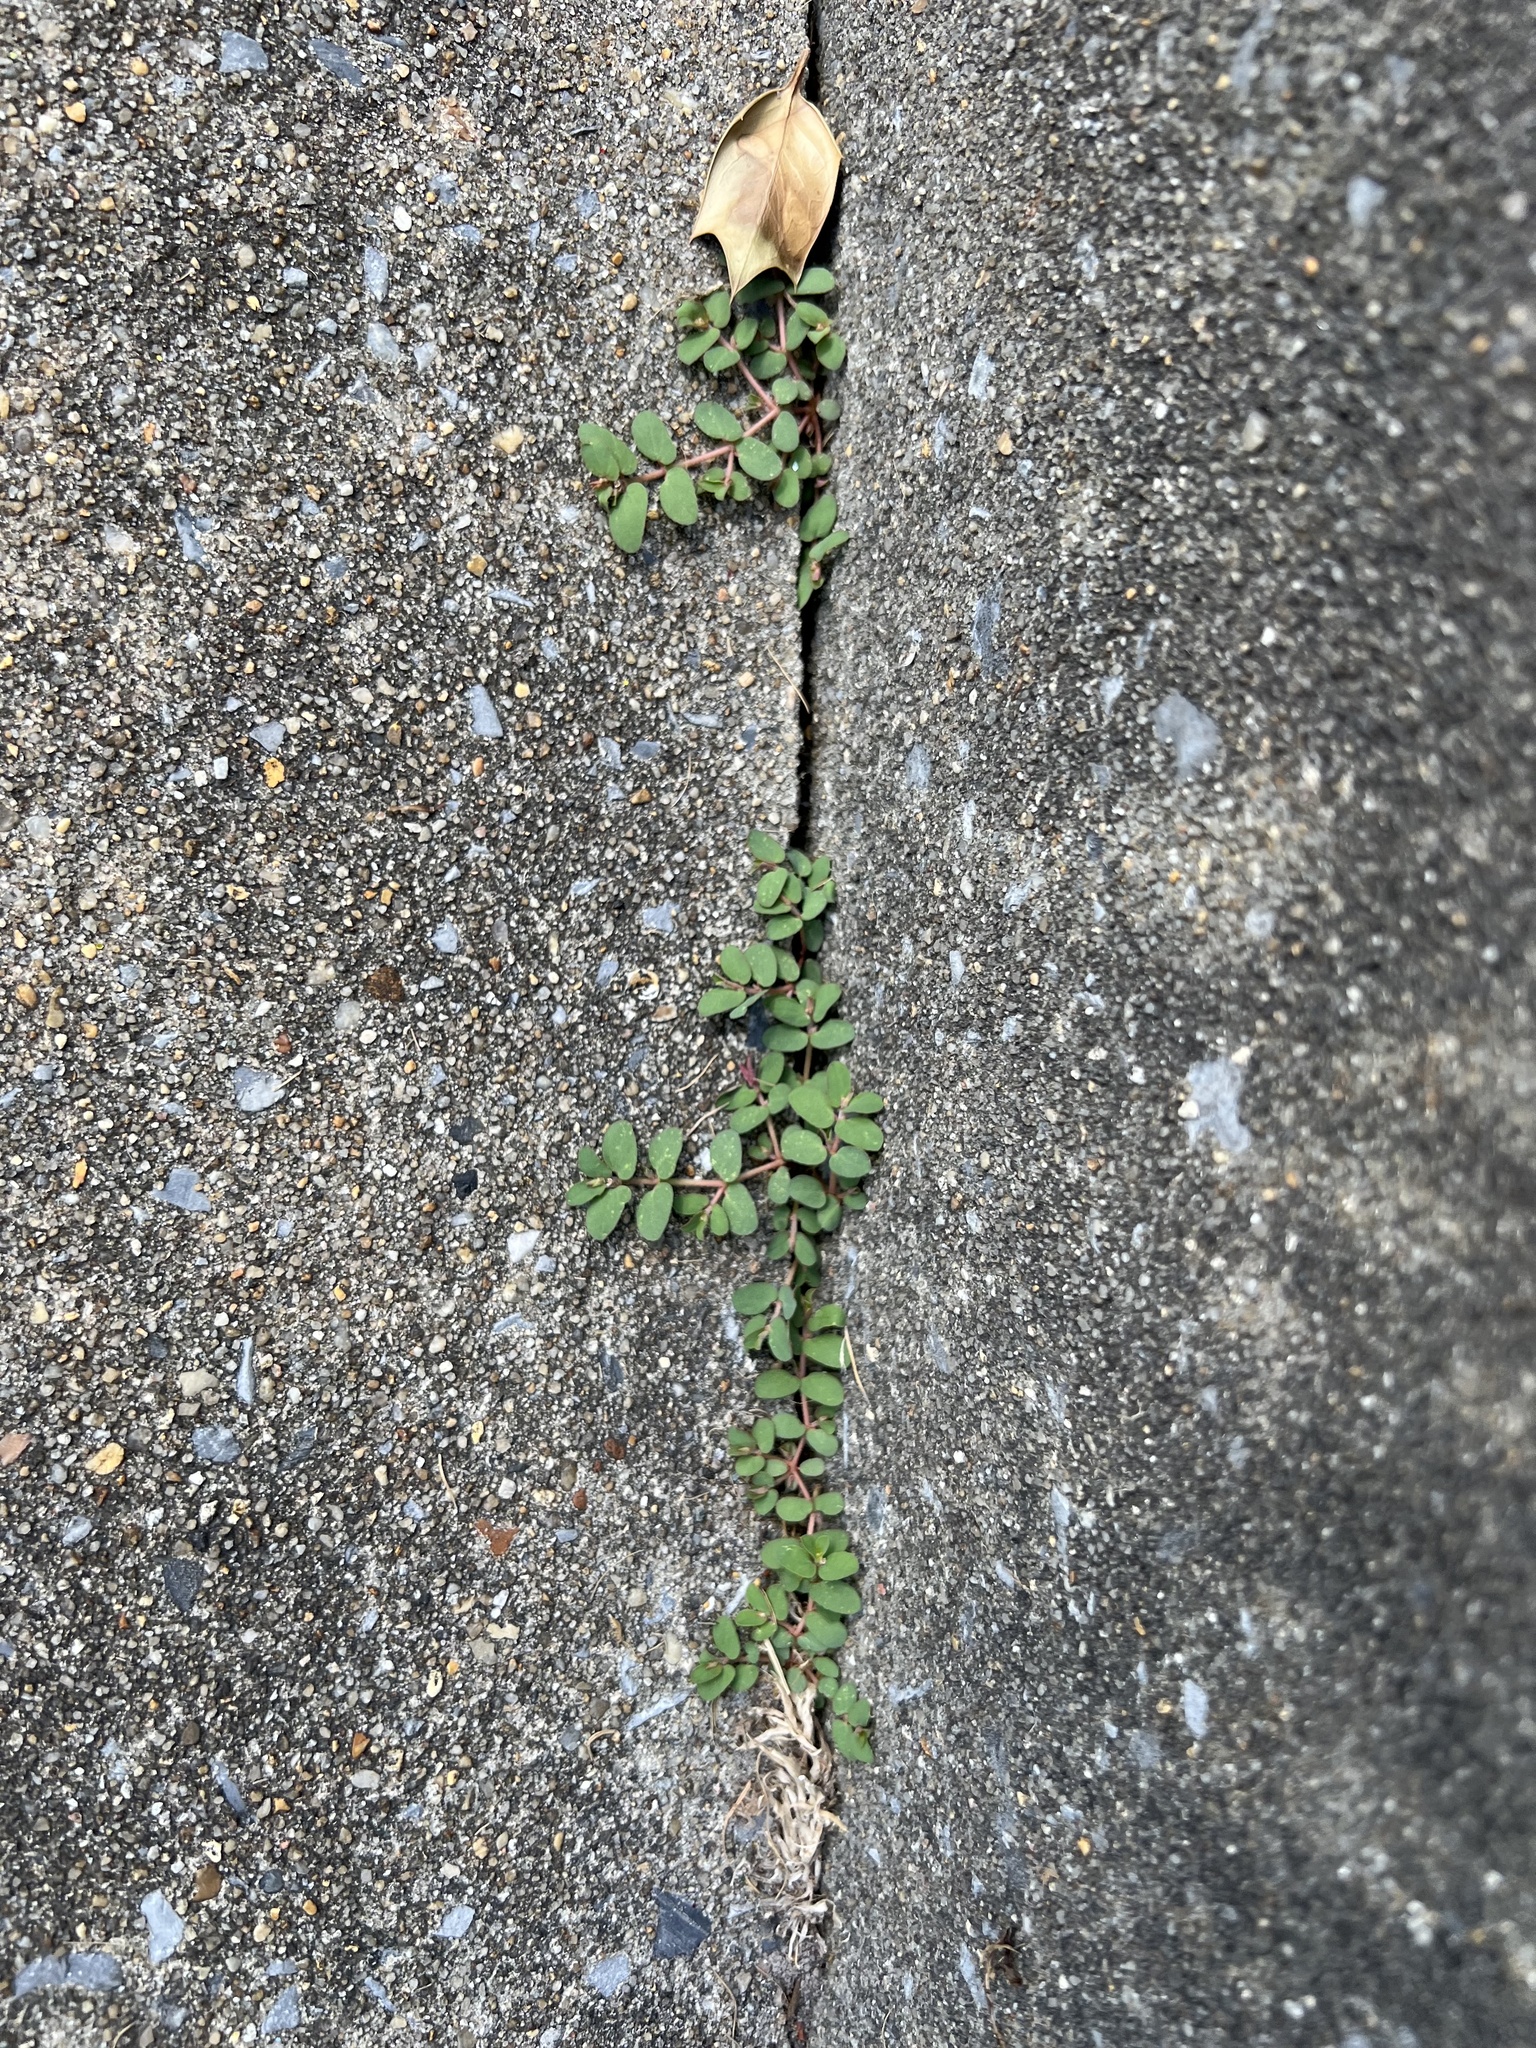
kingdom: Plantae
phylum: Tracheophyta
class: Magnoliopsida
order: Malpighiales
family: Euphorbiaceae
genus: Euphorbia
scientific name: Euphorbia maculata
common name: Spotted spurge
